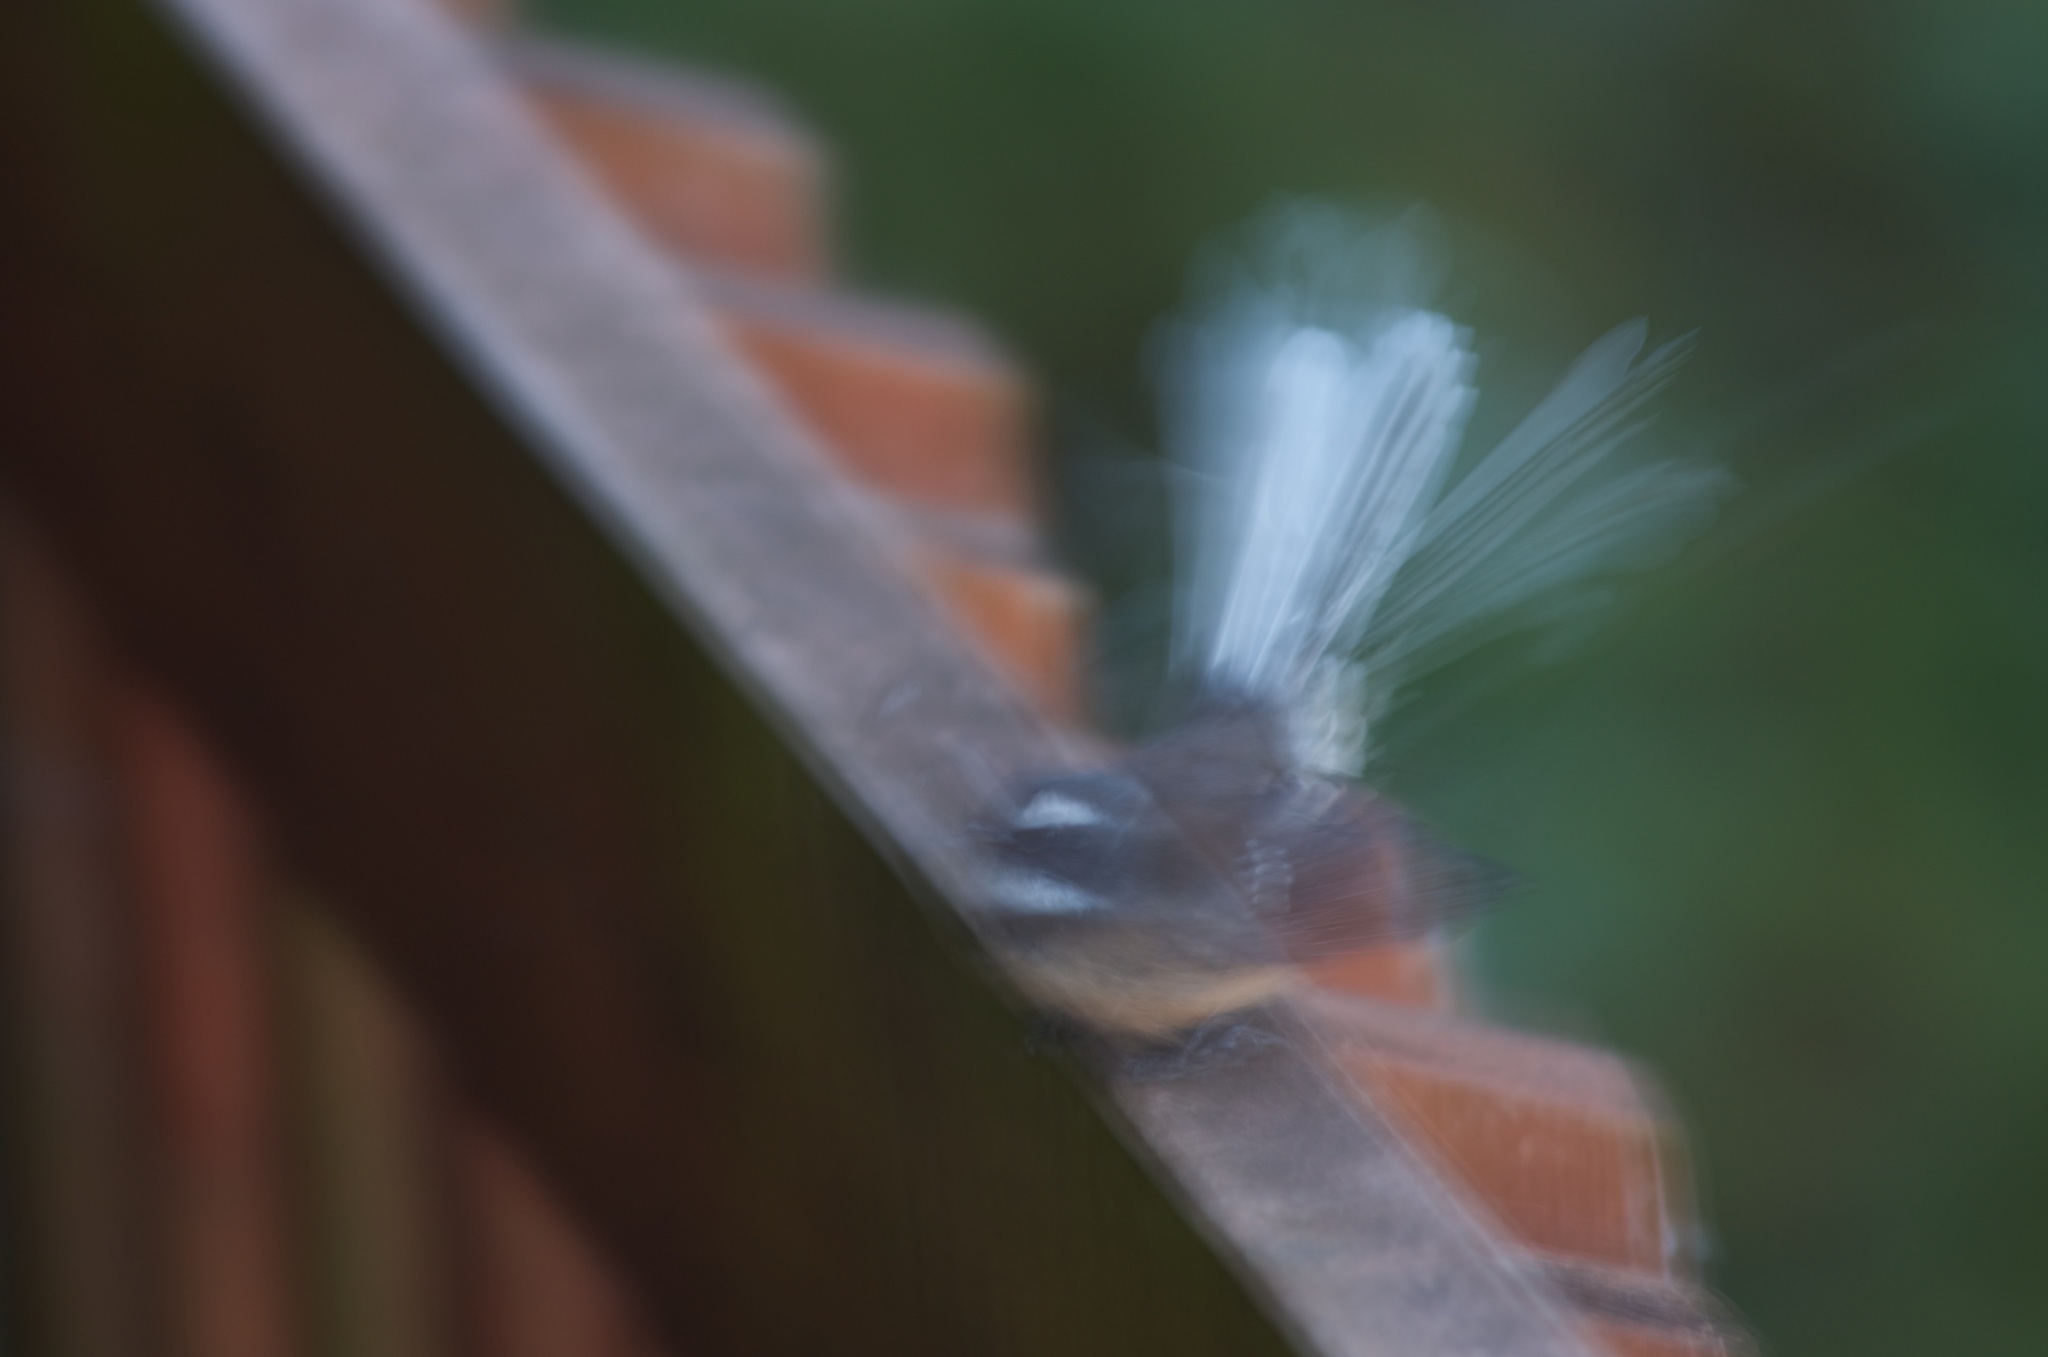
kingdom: Animalia
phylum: Chordata
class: Aves
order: Passeriformes
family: Rhipiduridae
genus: Rhipidura
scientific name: Rhipidura fuliginosa
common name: New zealand fantail
